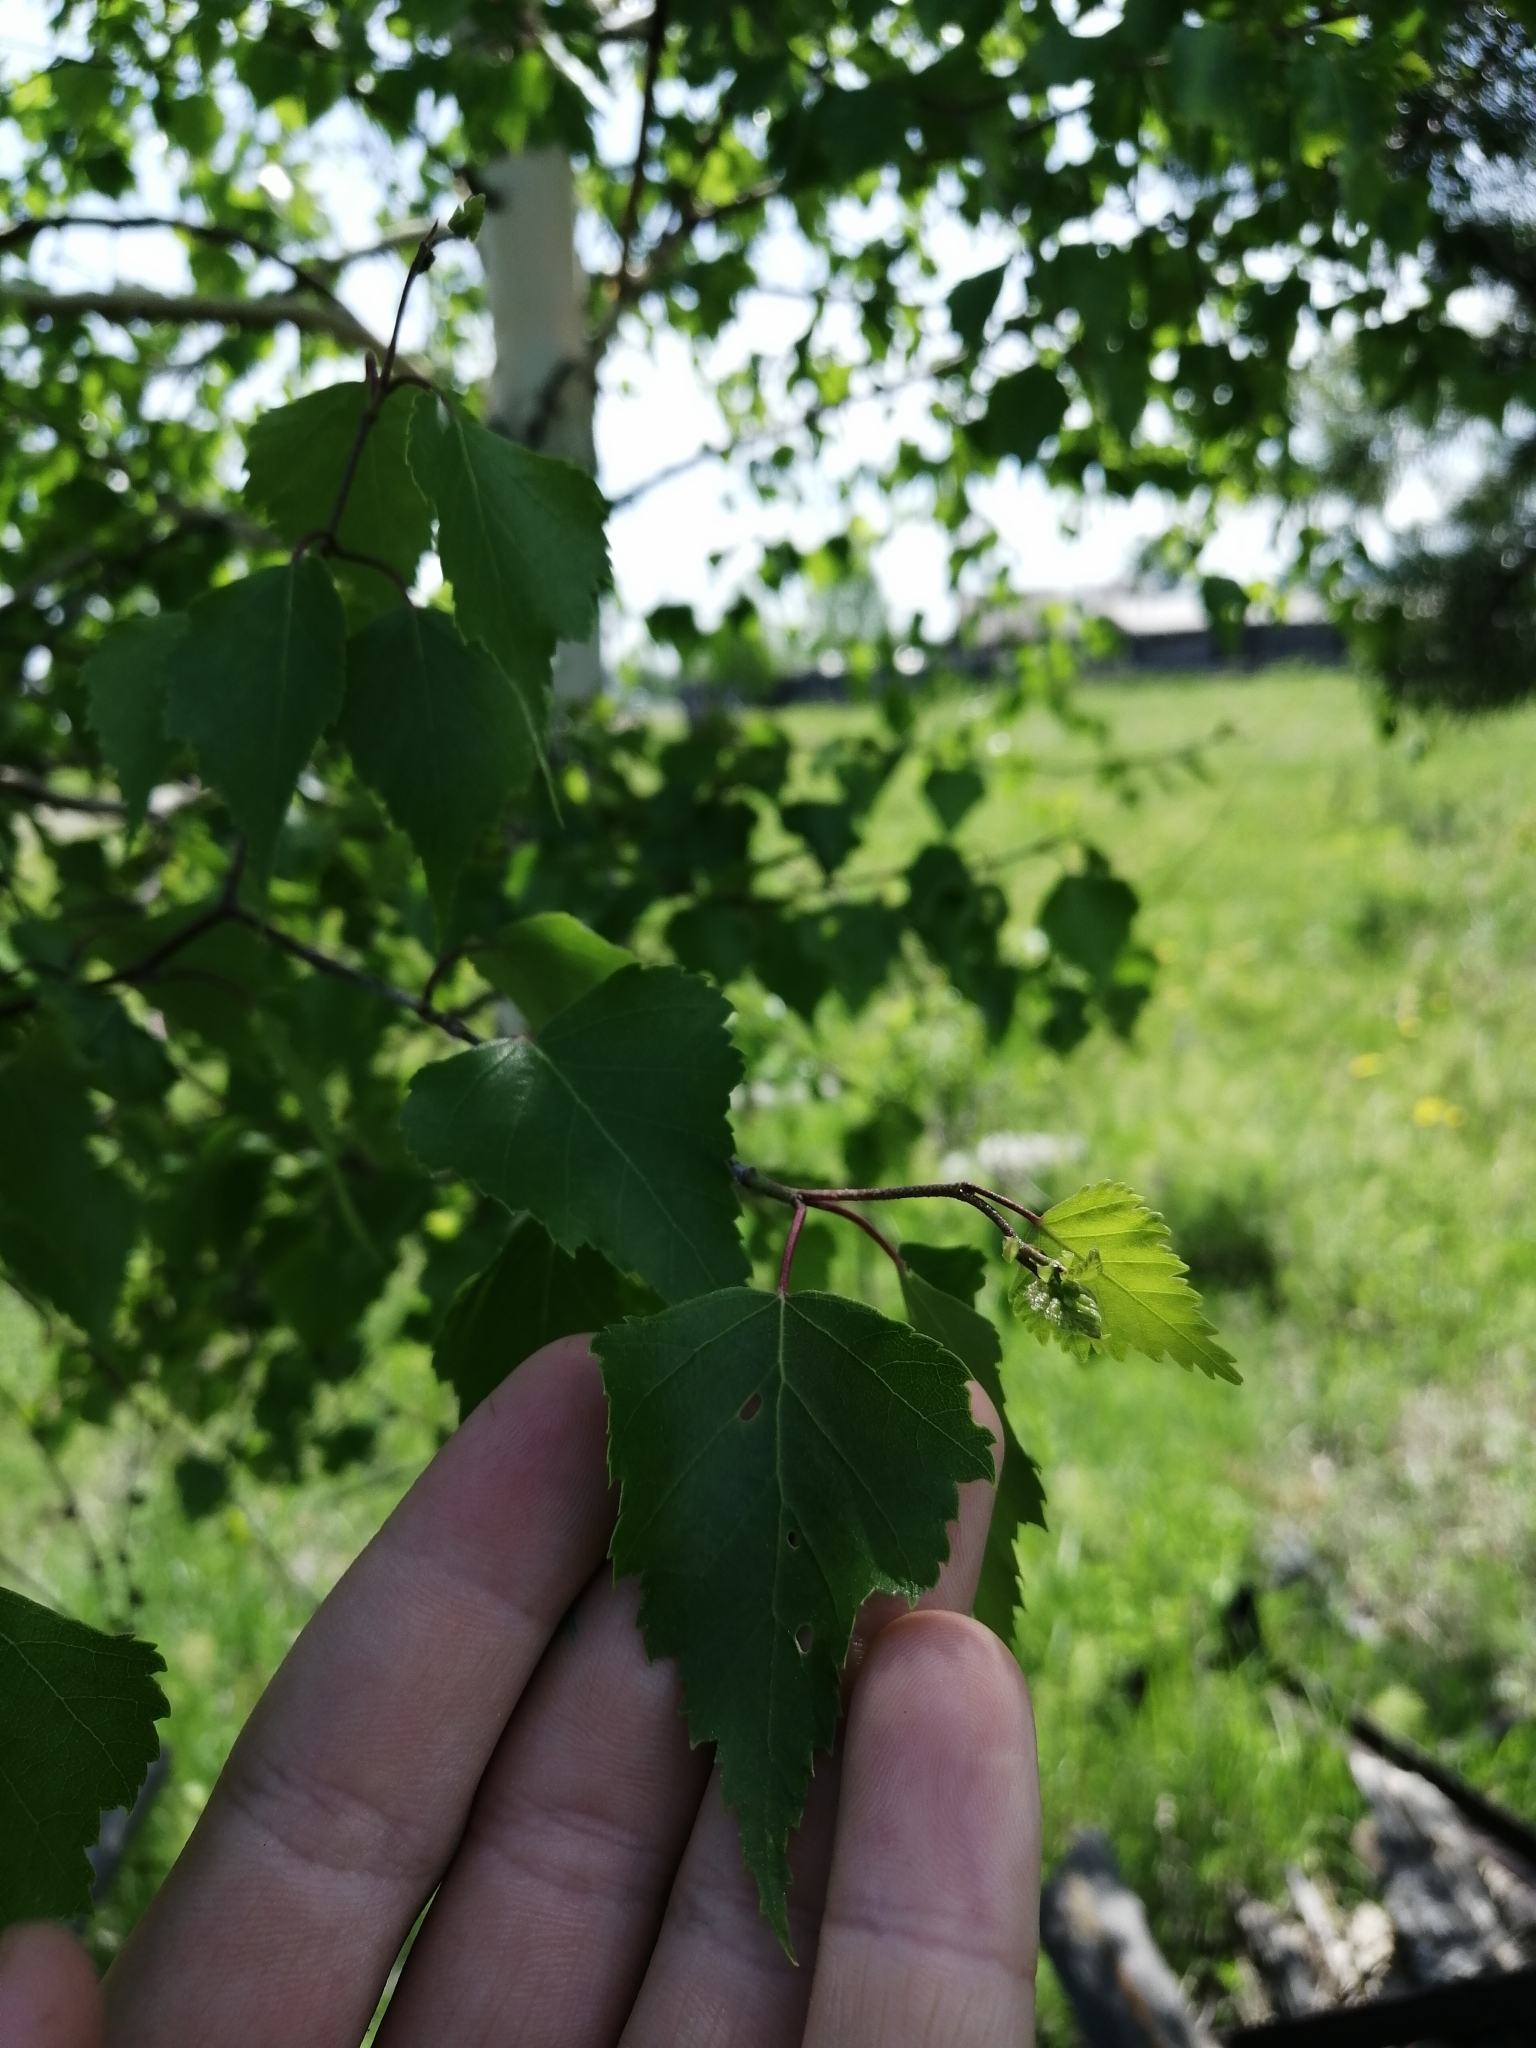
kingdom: Plantae
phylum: Tracheophyta
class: Magnoliopsida
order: Fagales
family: Betulaceae
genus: Betula
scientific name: Betula pendula
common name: Silver birch
